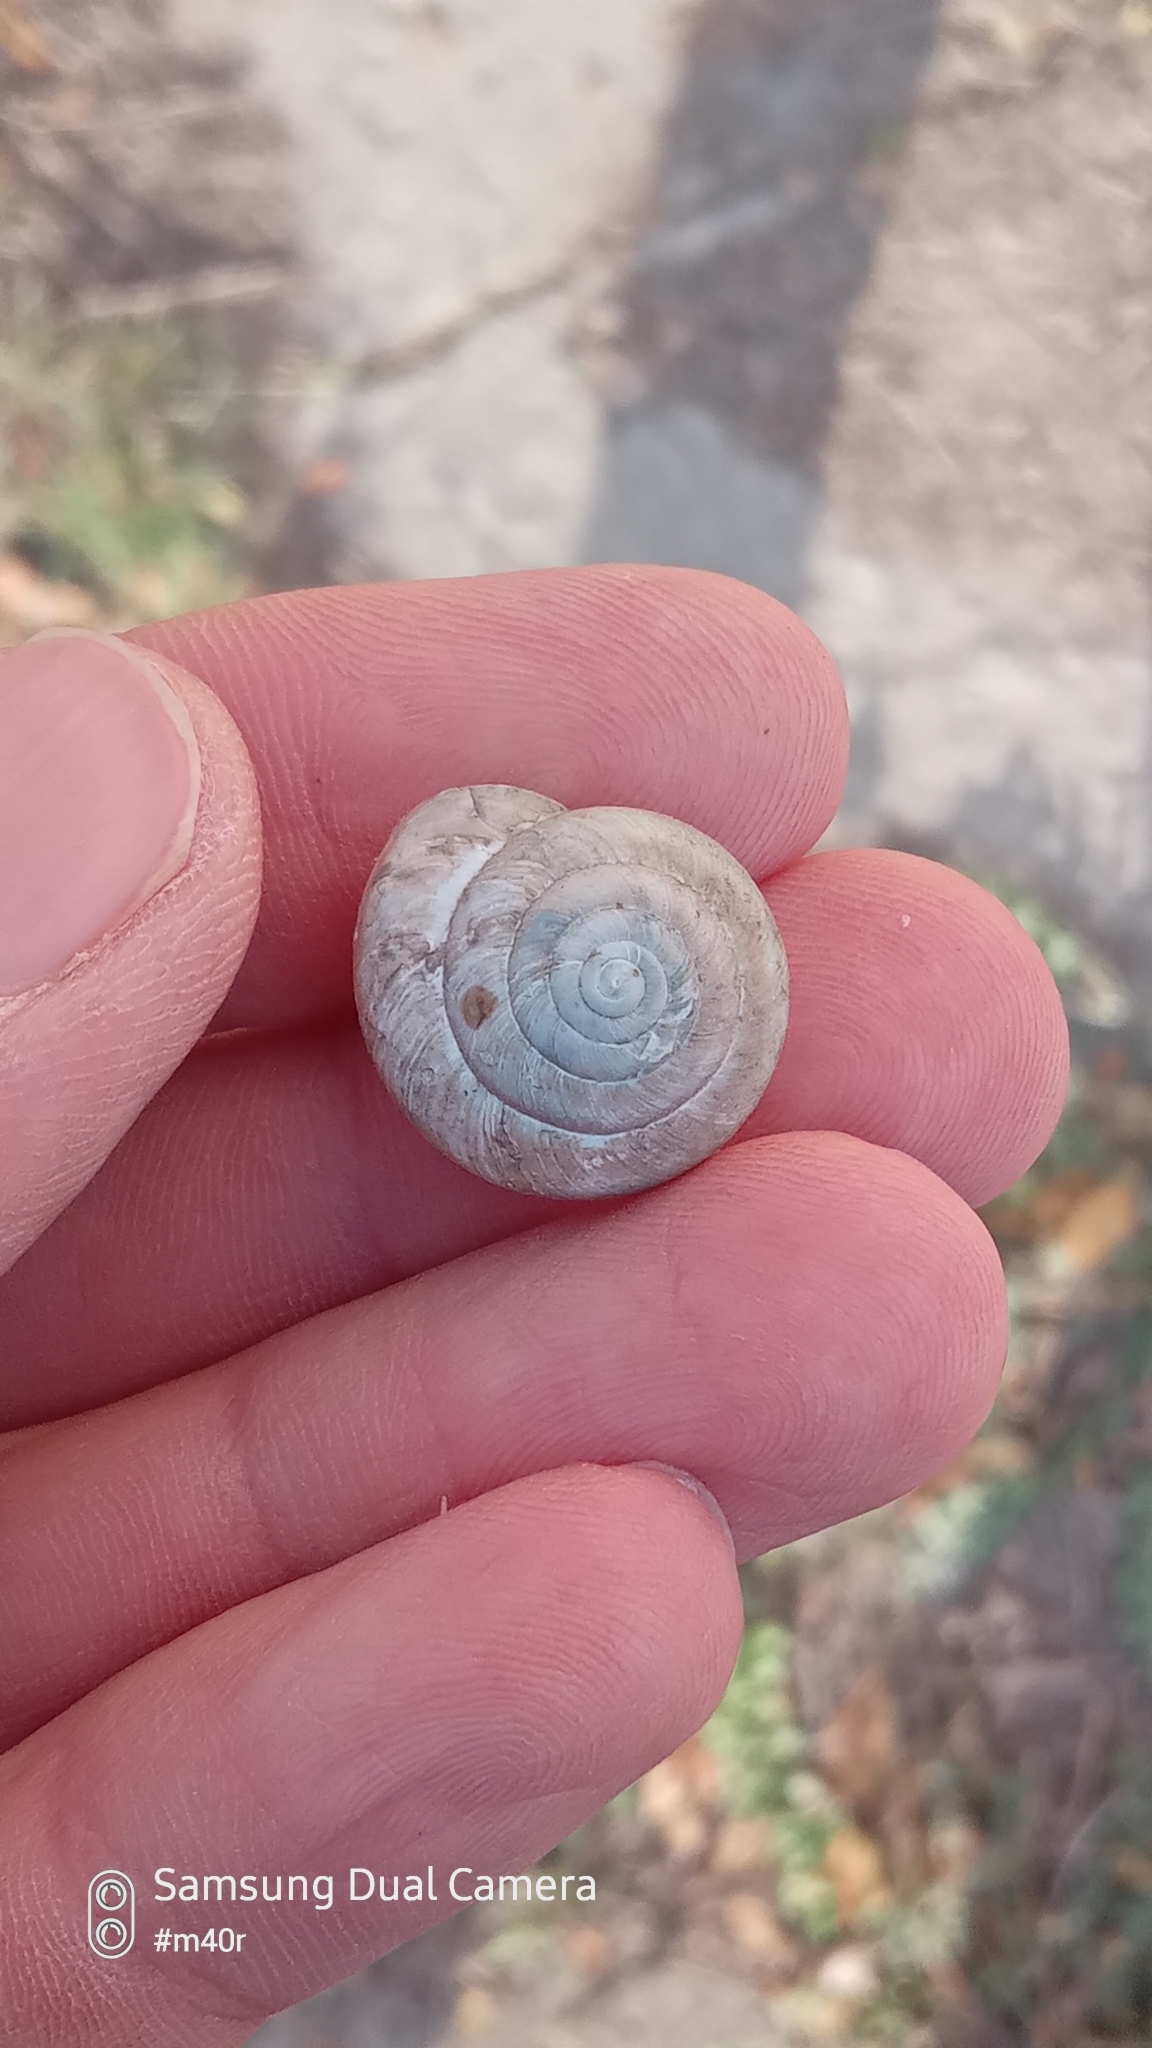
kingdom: Animalia
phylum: Mollusca
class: Gastropoda
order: Stylommatophora
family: Camaenidae
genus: Fruticicola
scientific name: Fruticicola lantzi
